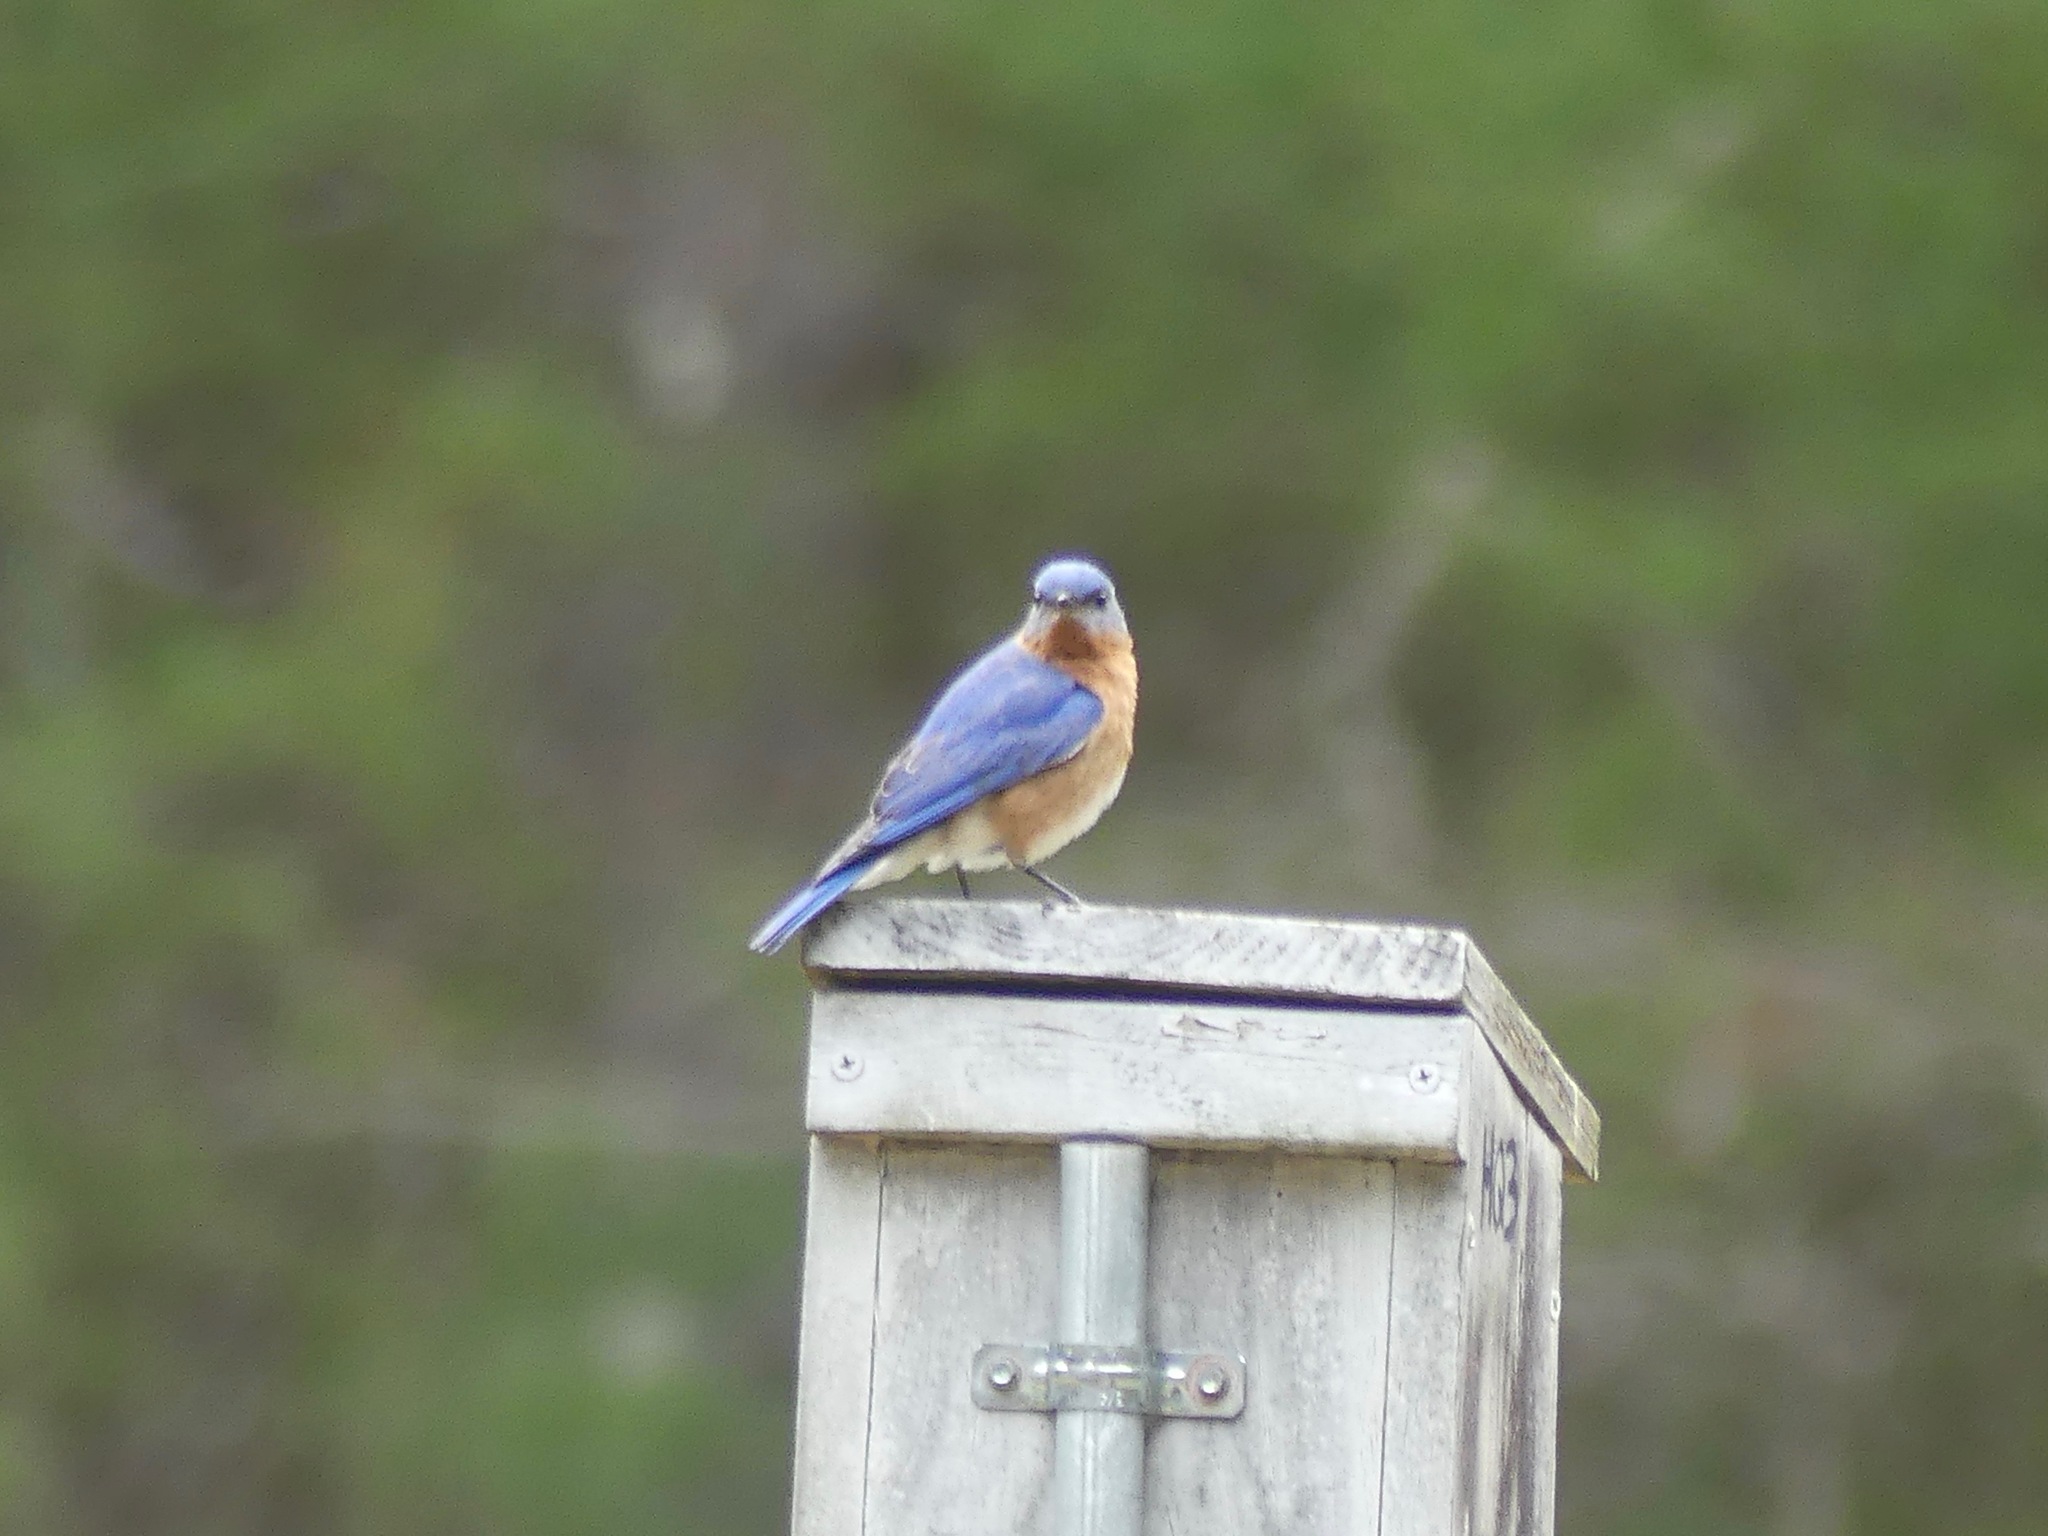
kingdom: Animalia
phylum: Chordata
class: Aves
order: Passeriformes
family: Turdidae
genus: Sialia
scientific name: Sialia sialis
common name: Eastern bluebird
